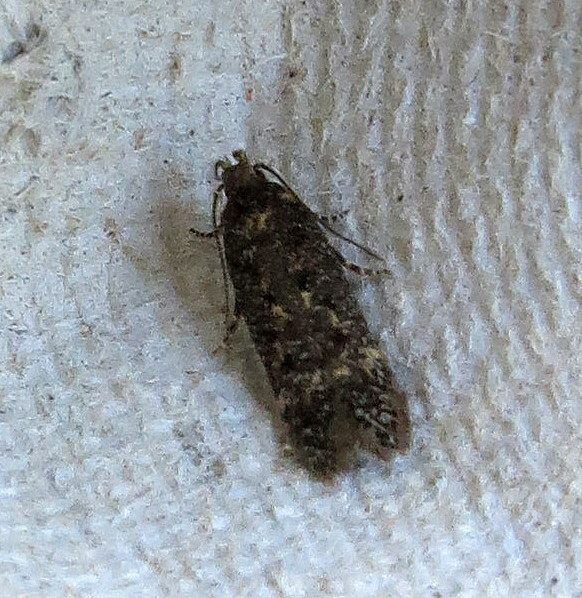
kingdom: Animalia
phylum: Arthropoda
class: Insecta
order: Lepidoptera
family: Gelechiidae
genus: Bryotropha
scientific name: Bryotropha affinis
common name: Dark groundling
